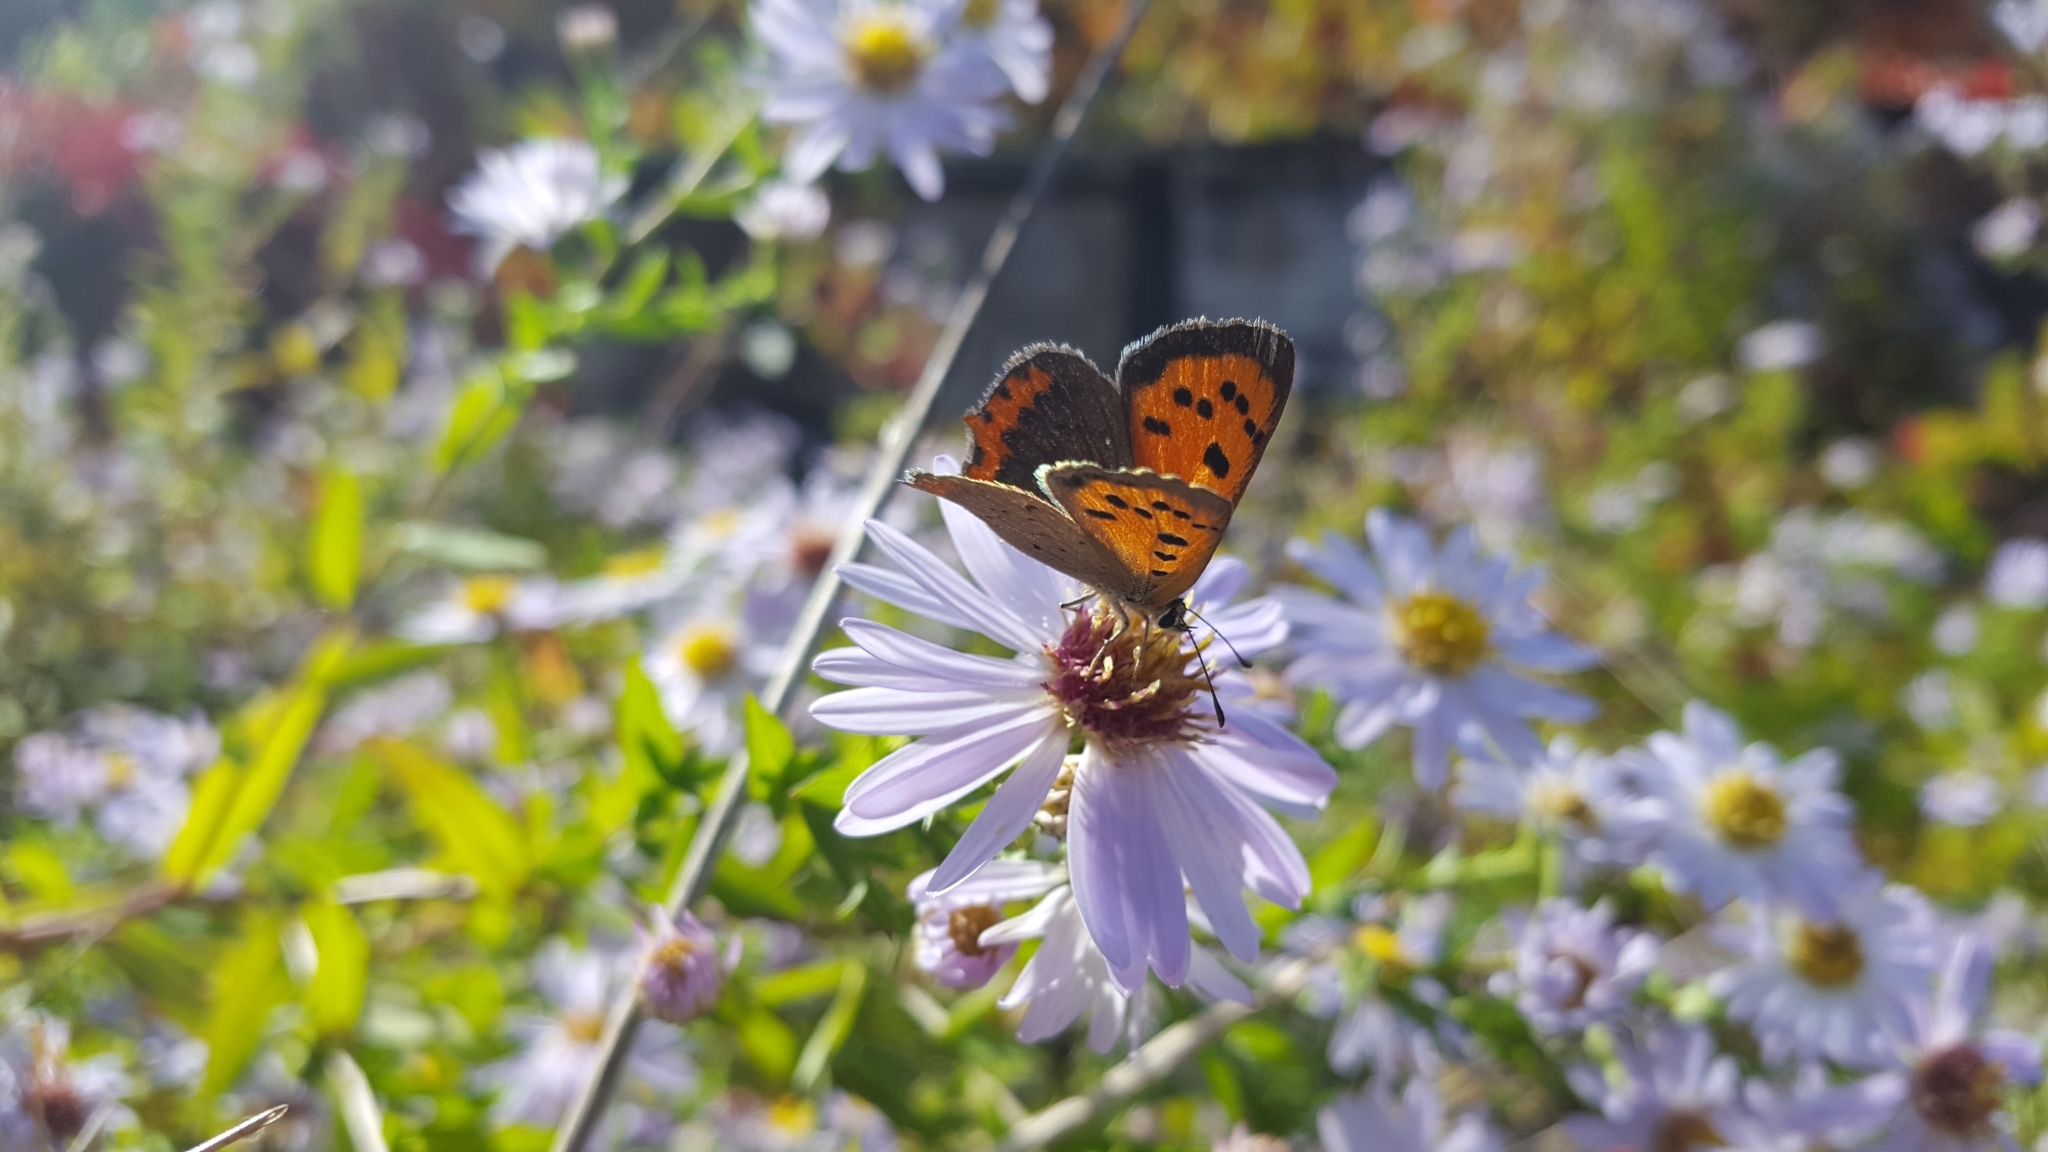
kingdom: Animalia
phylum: Arthropoda
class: Insecta
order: Lepidoptera
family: Lycaenidae
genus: Lycaena
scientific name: Lycaena phlaeas
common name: Small copper
